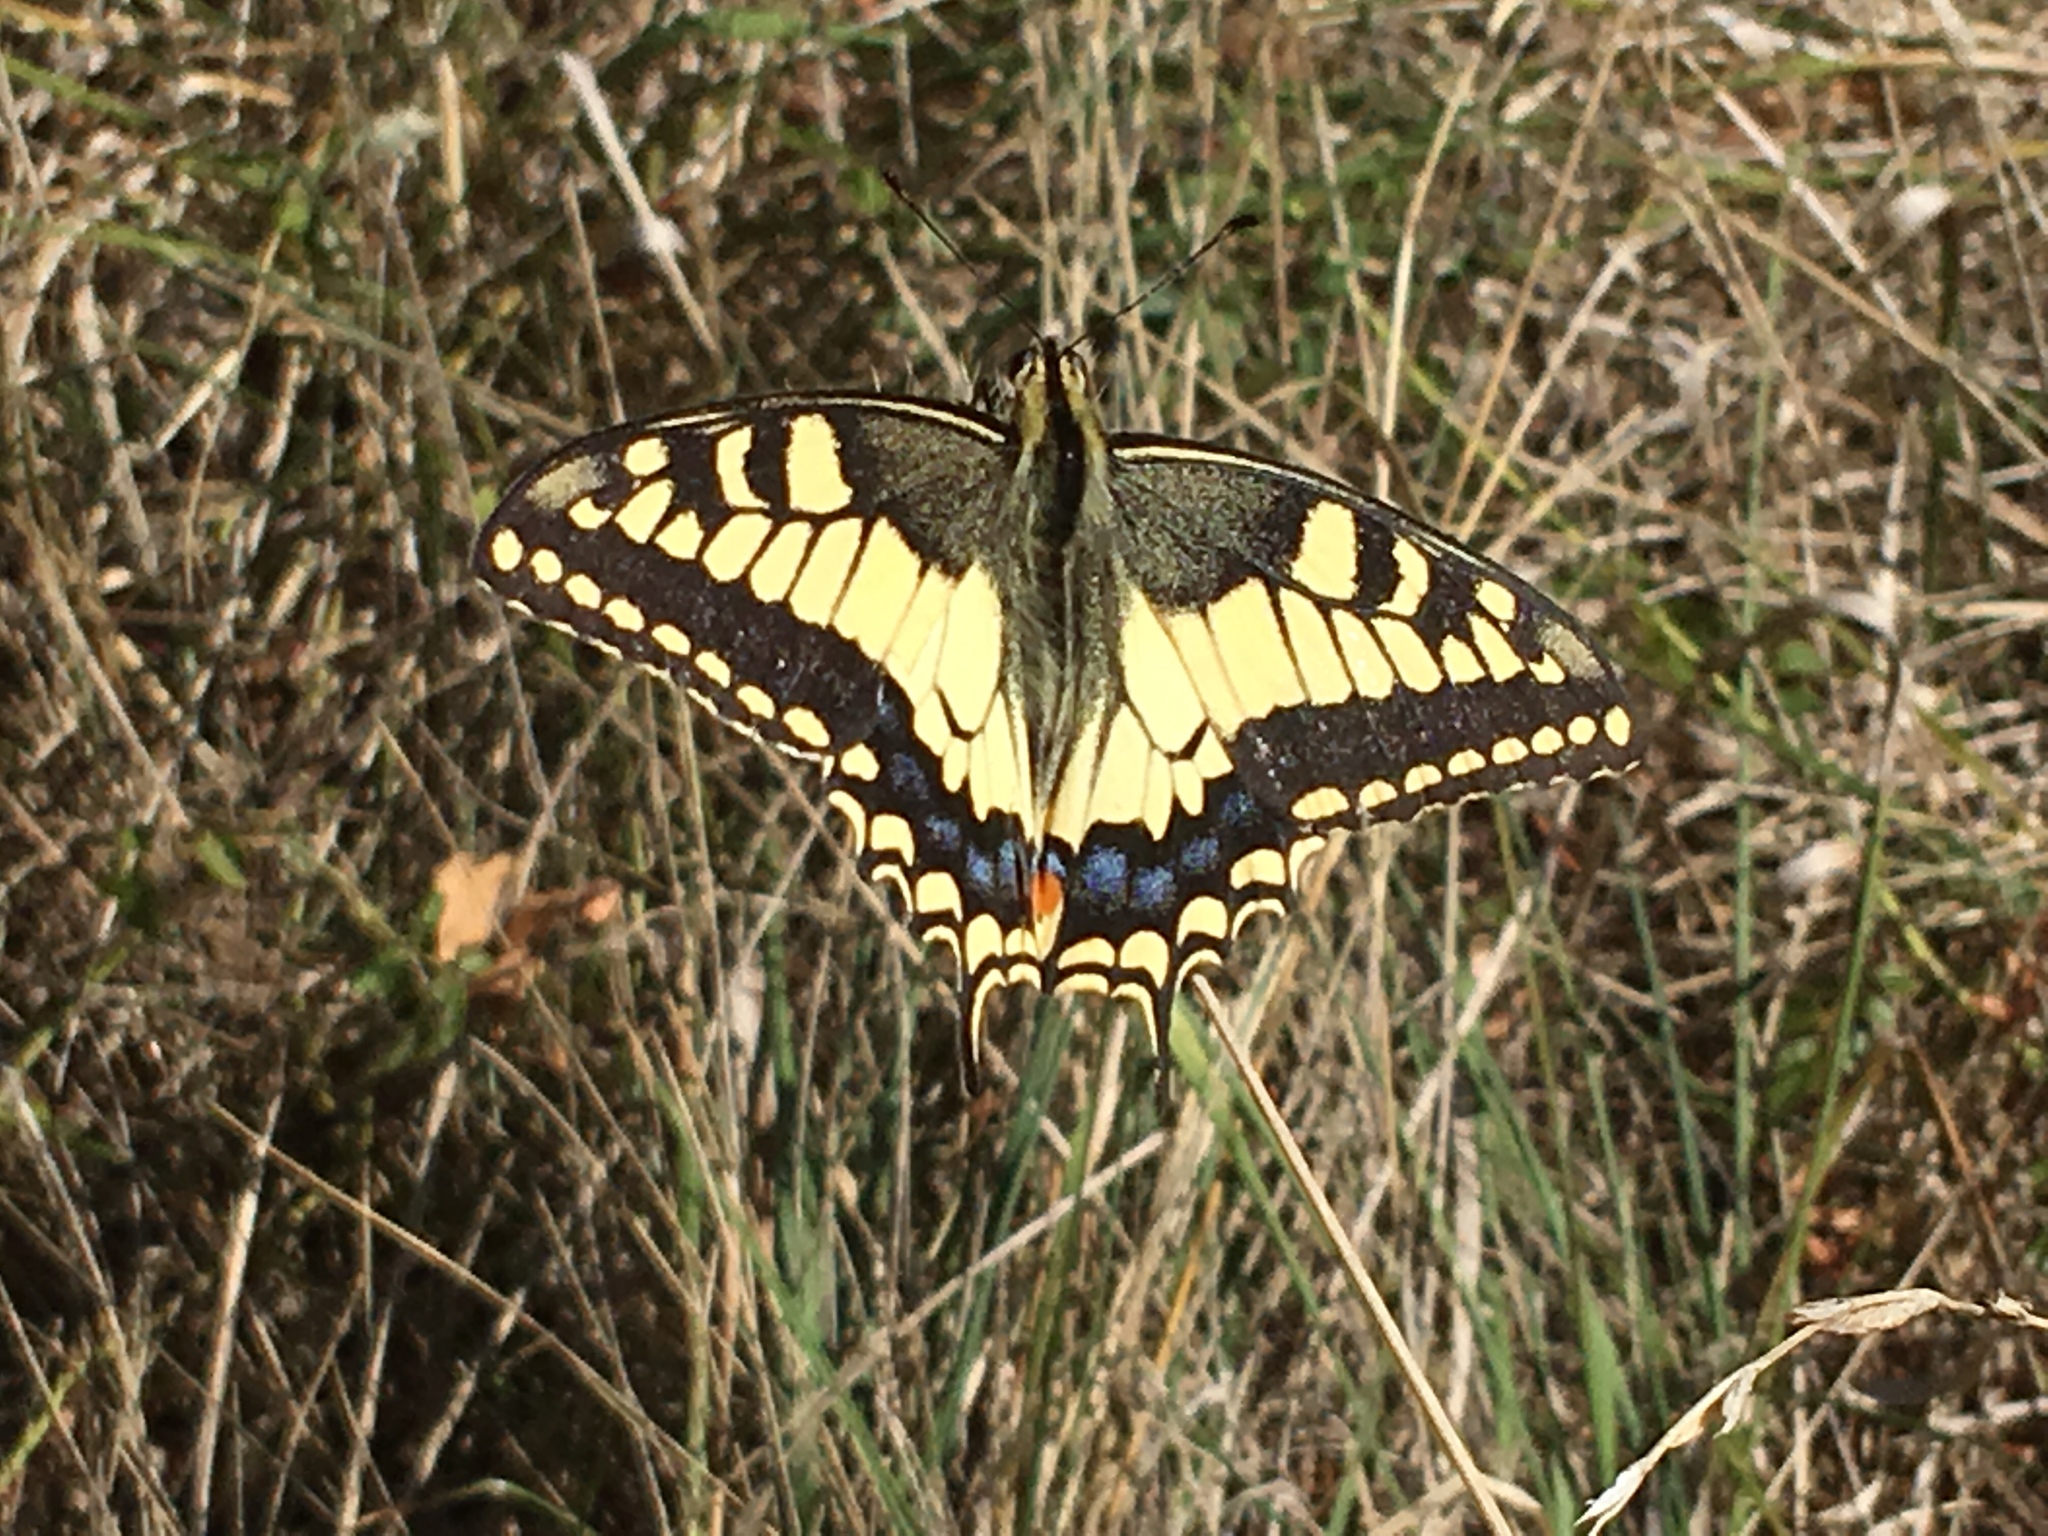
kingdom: Animalia
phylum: Arthropoda
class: Insecta
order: Lepidoptera
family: Papilionidae
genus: Papilio
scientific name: Papilio machaon
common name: Swallowtail
